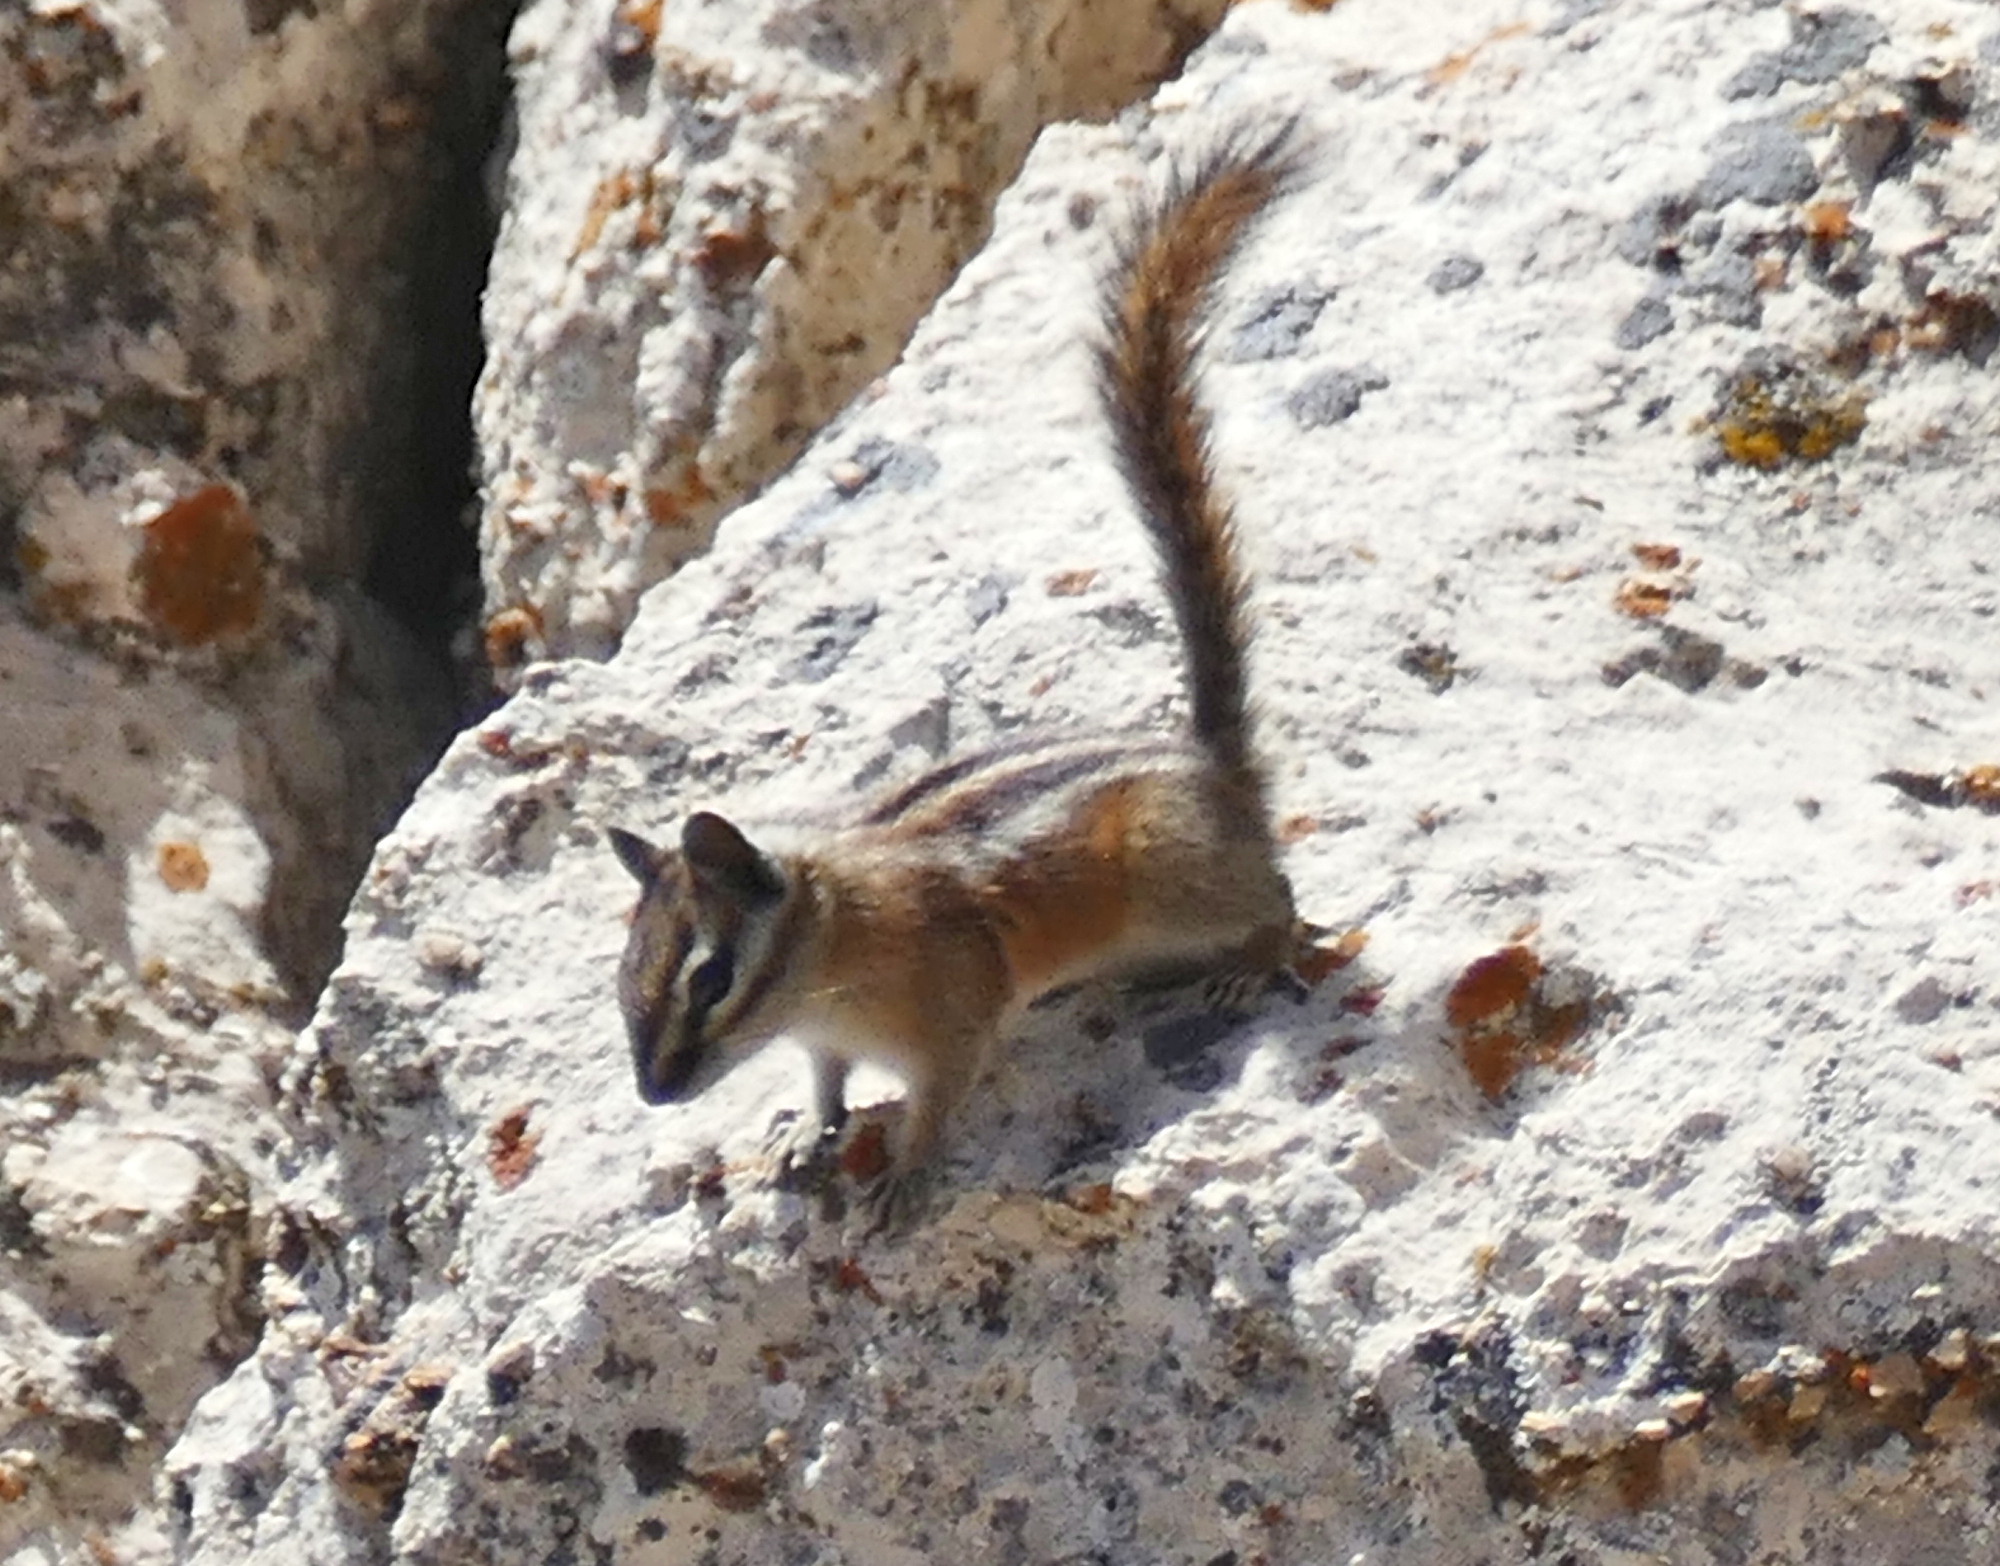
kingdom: Animalia
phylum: Chordata
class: Mammalia
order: Rodentia
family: Sciuridae
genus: Tamias
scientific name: Tamias umbrinus
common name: Uinta chipmunk
